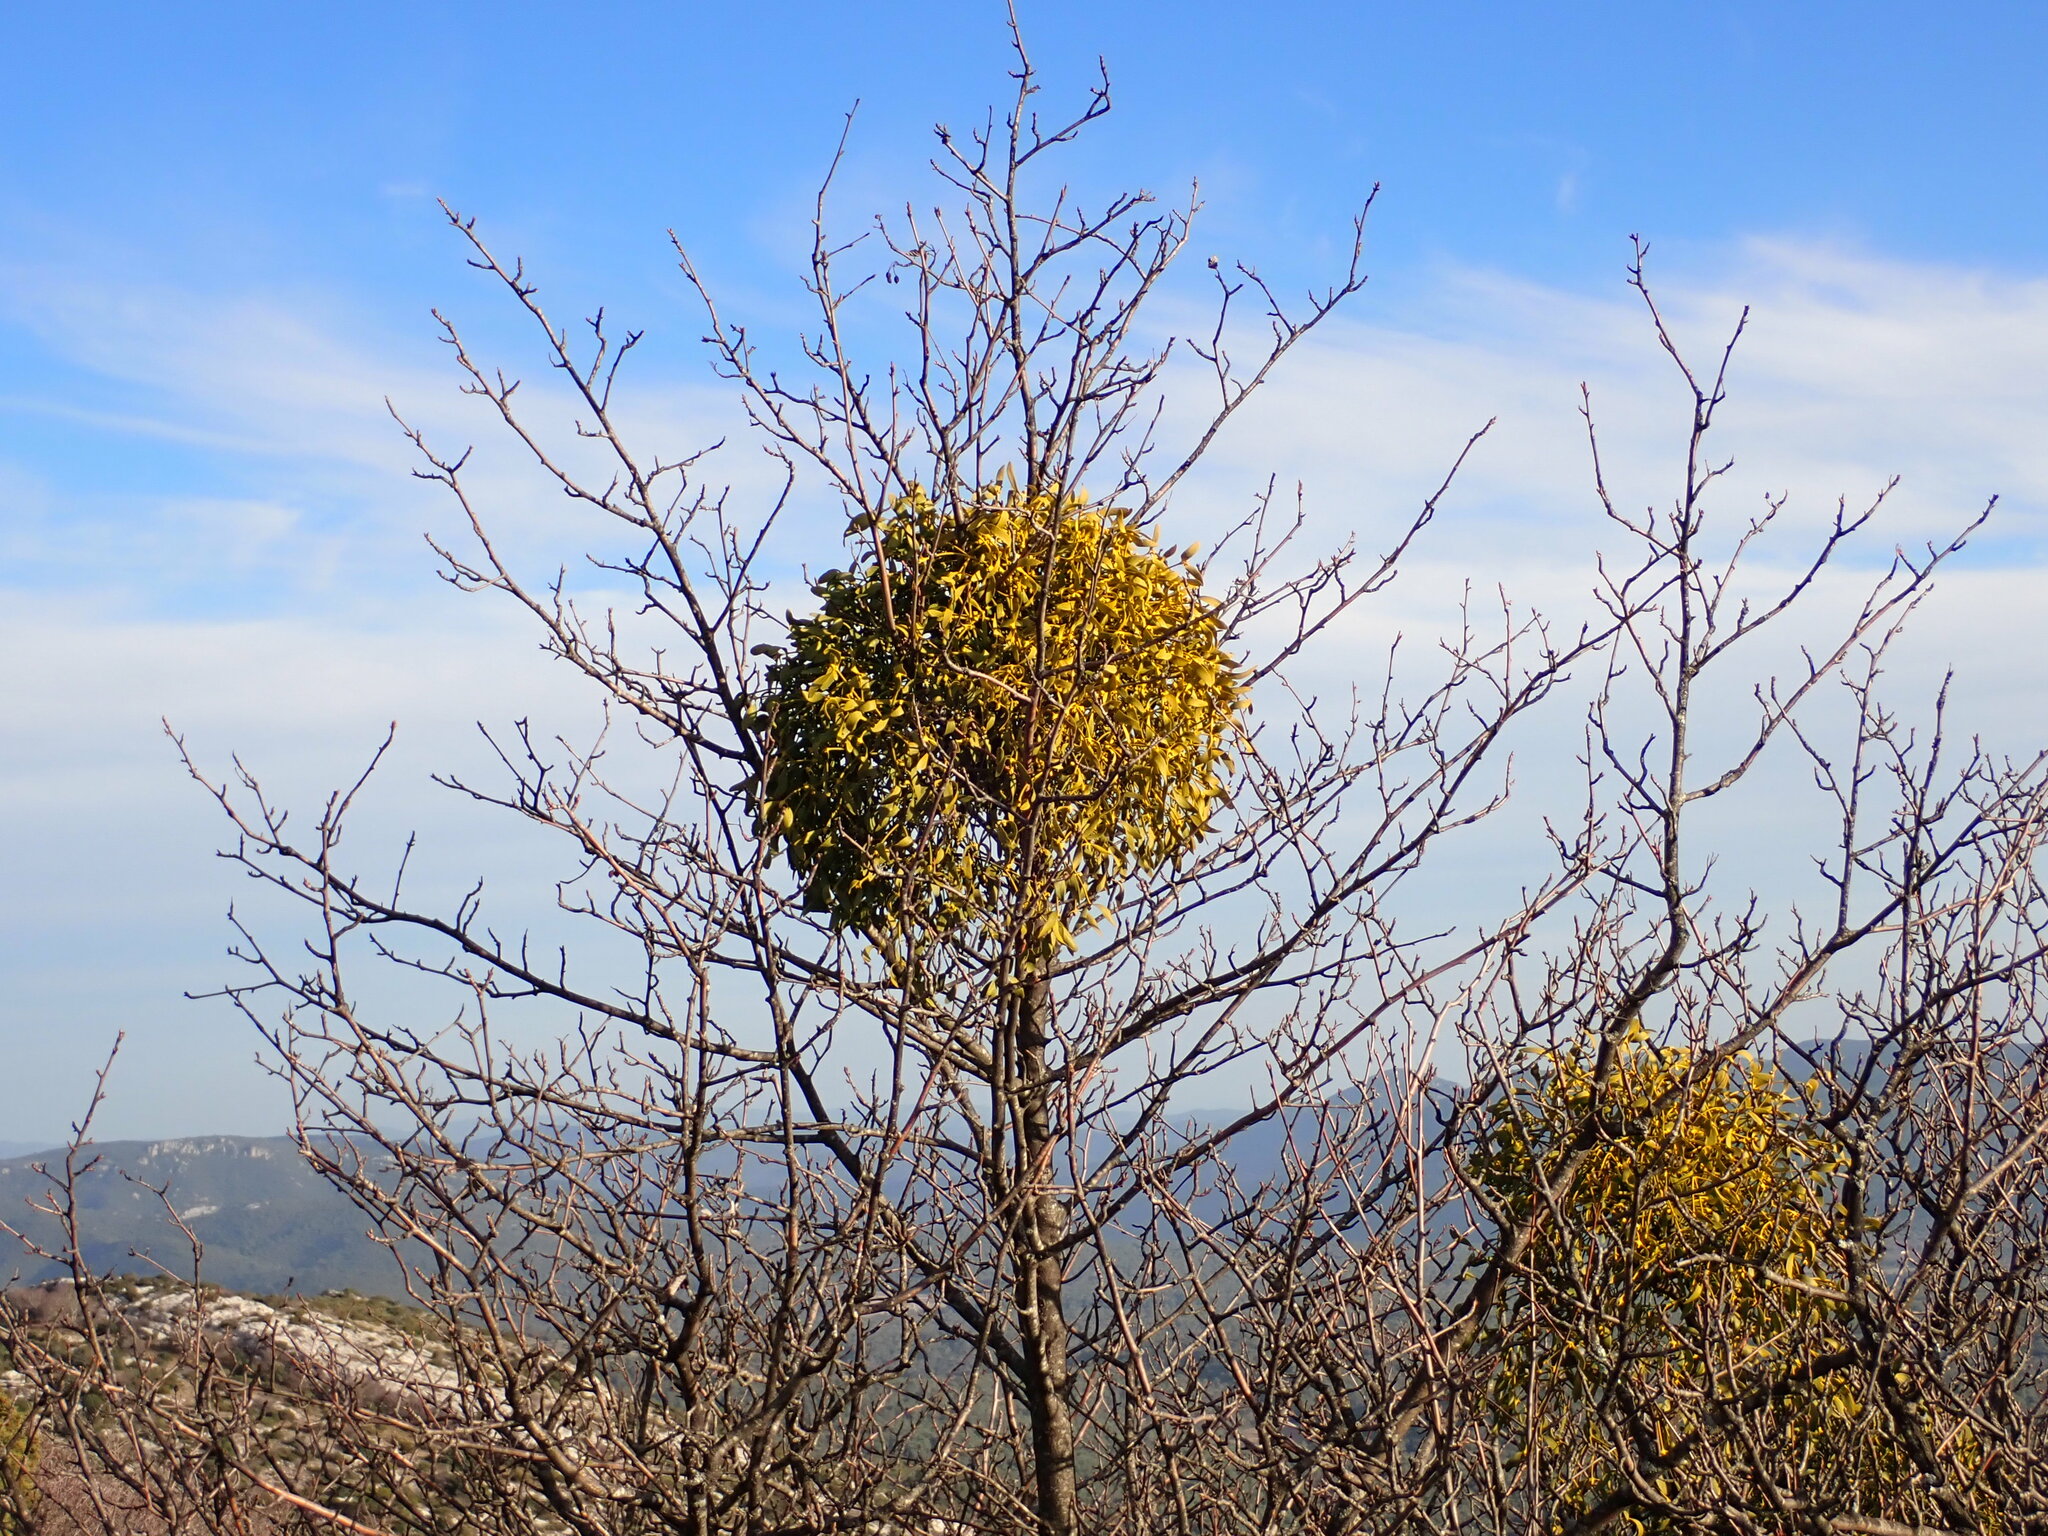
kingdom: Plantae
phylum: Tracheophyta
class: Magnoliopsida
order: Santalales
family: Viscaceae
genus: Viscum
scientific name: Viscum album
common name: Mistletoe
